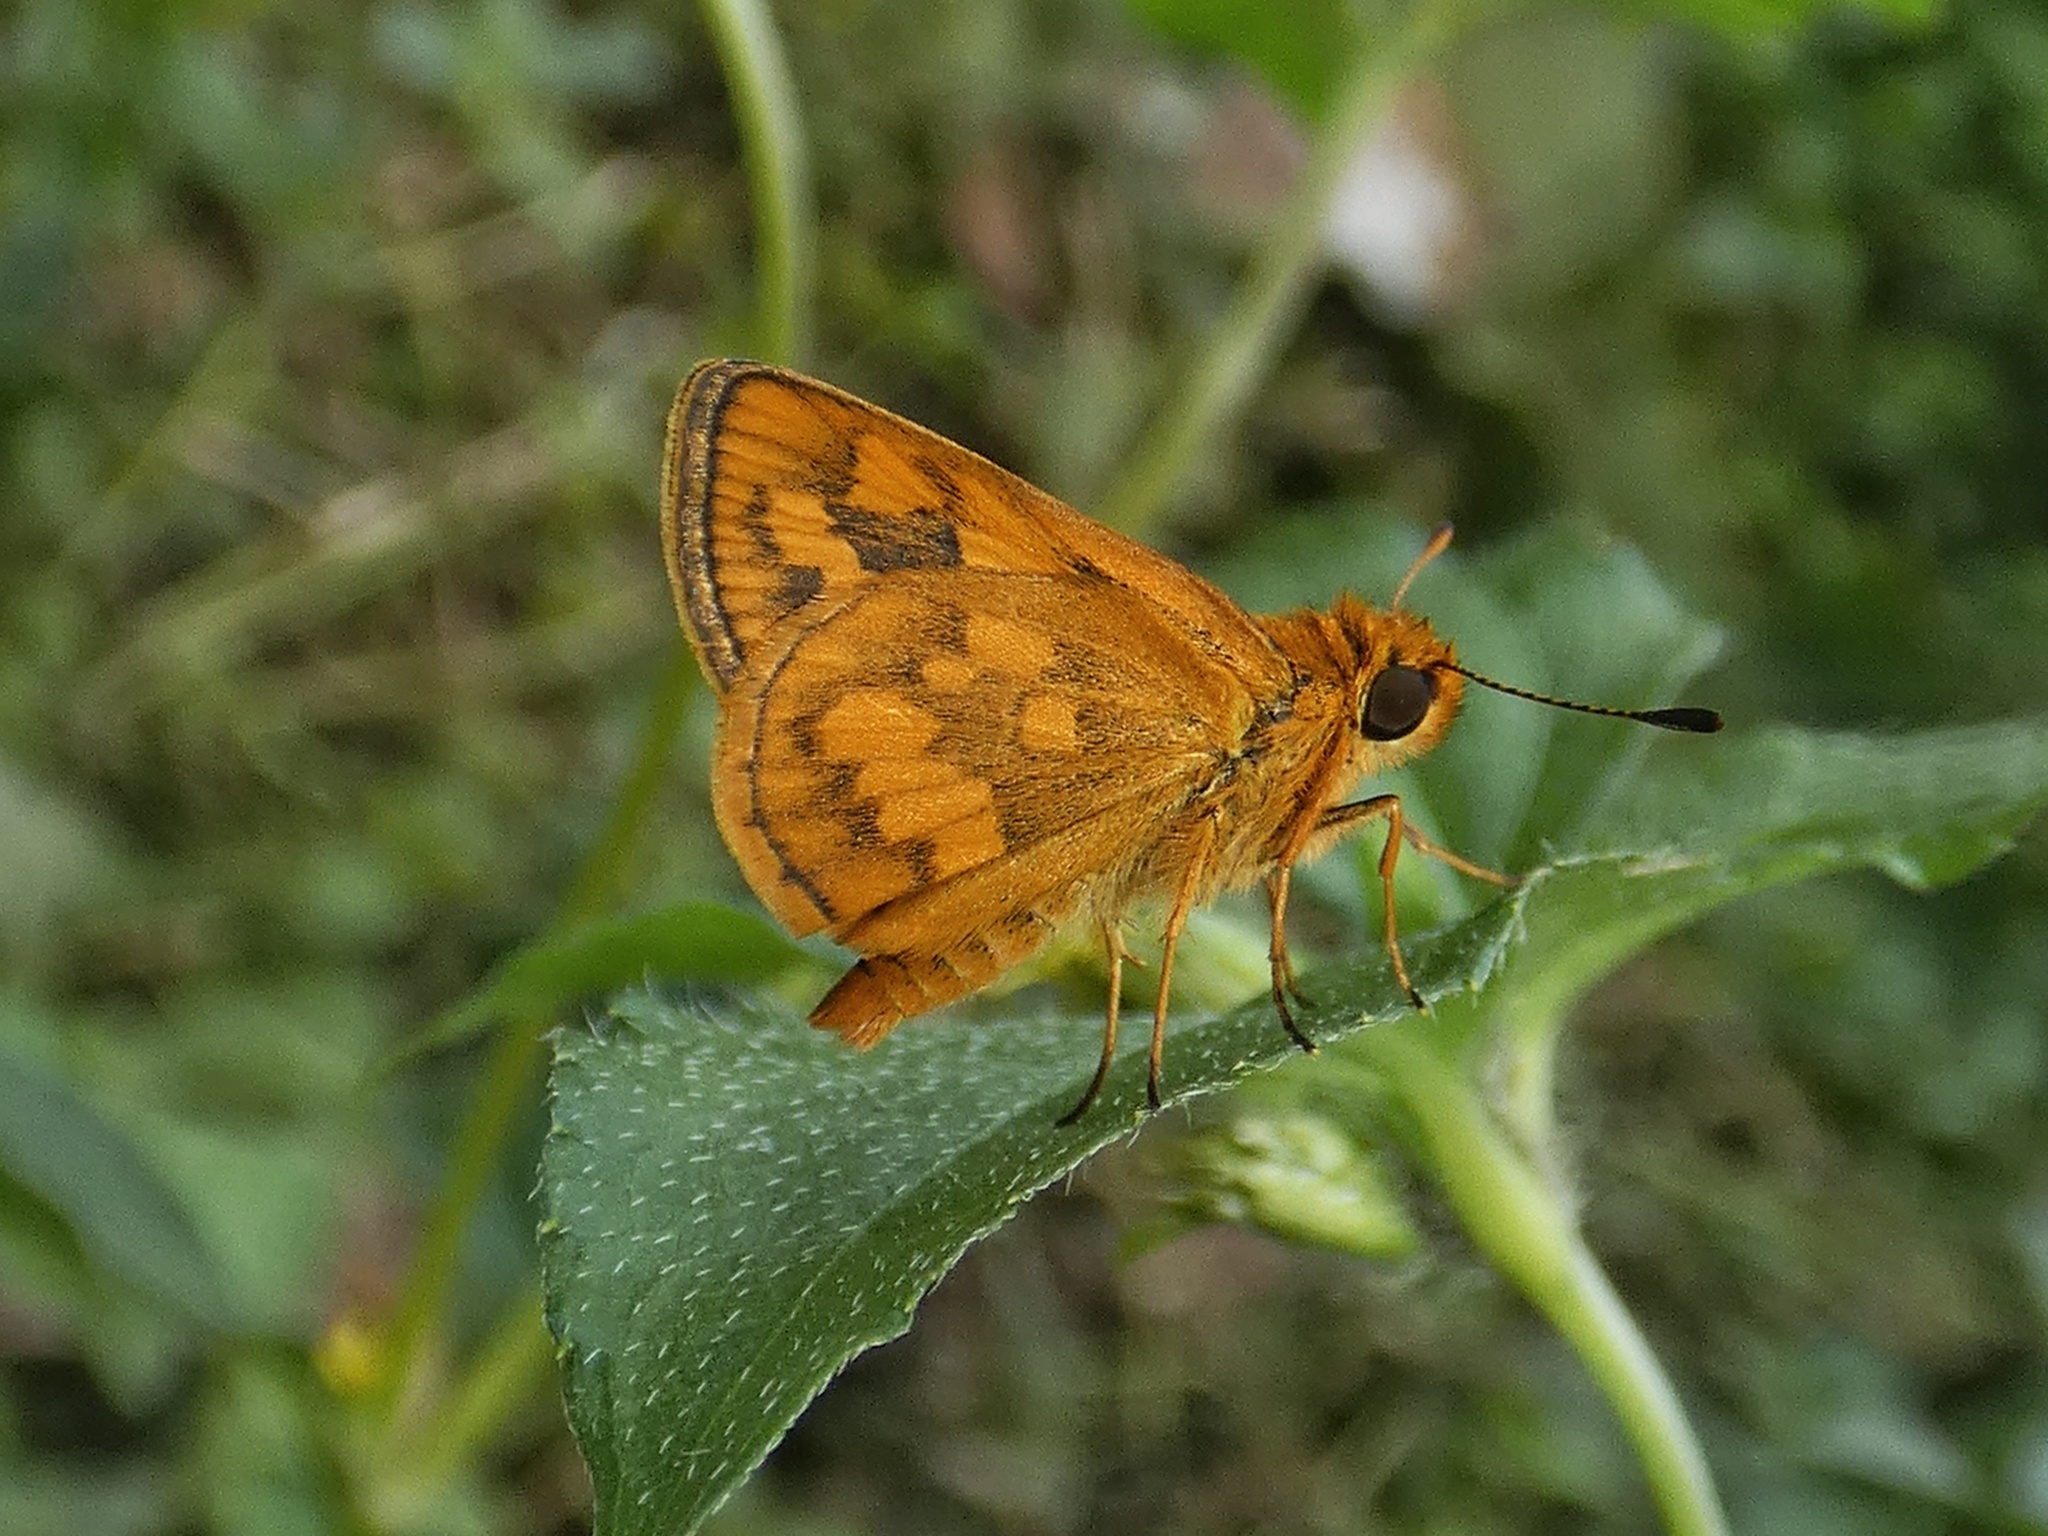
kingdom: Animalia
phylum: Arthropoda
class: Insecta
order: Lepidoptera
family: Hesperiidae
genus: Taractrocera
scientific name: Taractrocera
